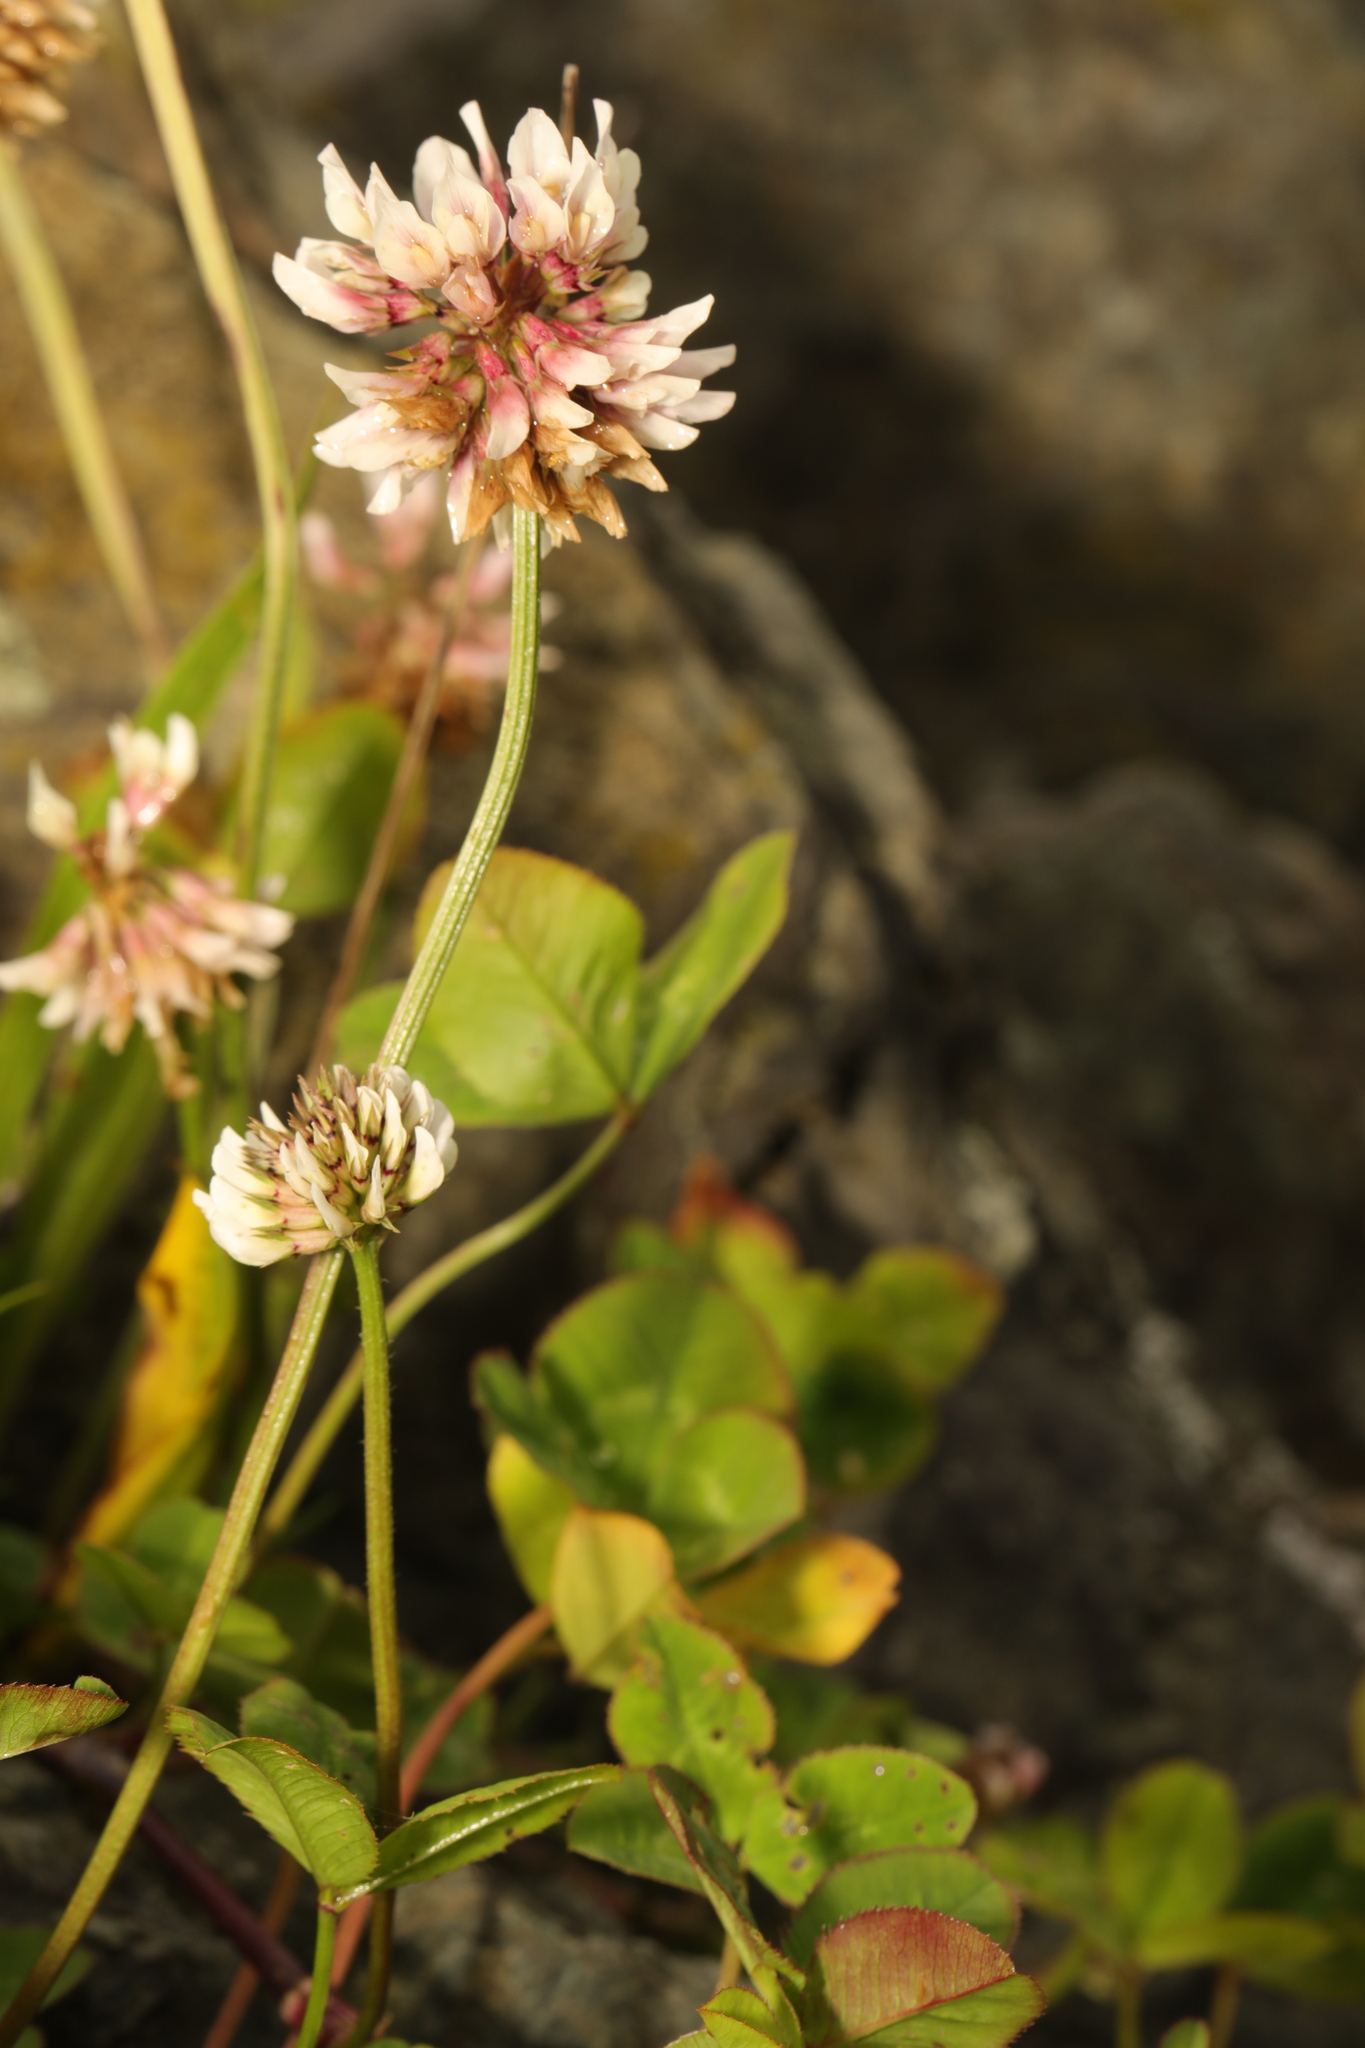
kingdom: Plantae
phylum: Tracheophyta
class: Magnoliopsida
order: Fabales
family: Fabaceae
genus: Trifolium
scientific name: Trifolium repens
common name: White clover
